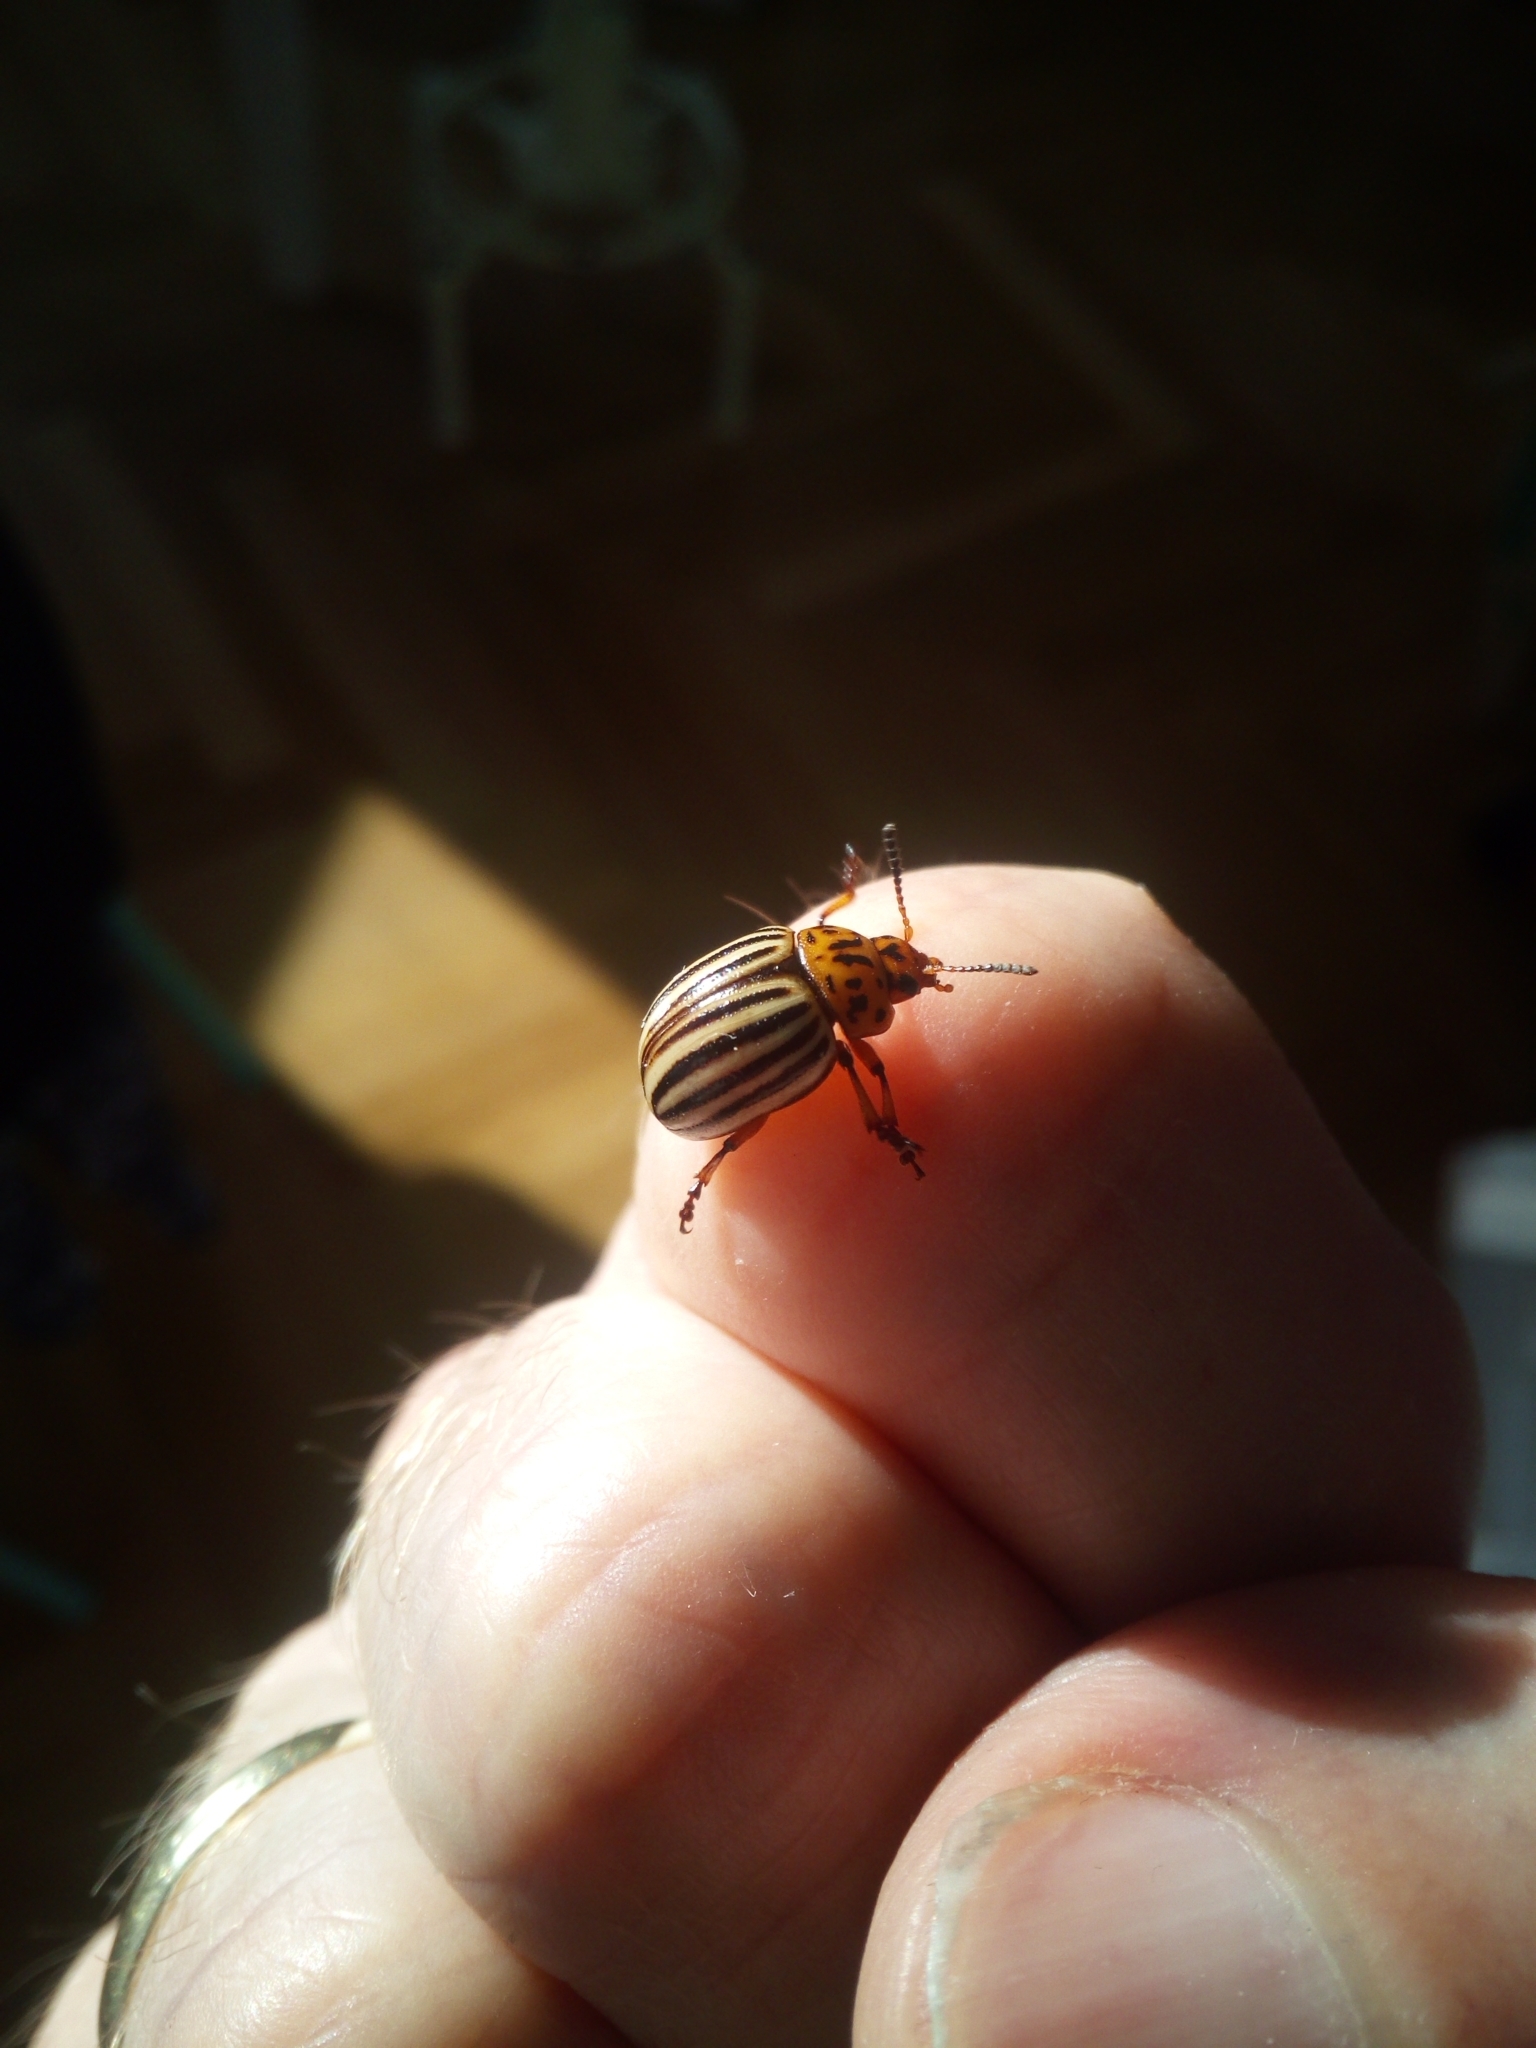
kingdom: Animalia
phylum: Arthropoda
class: Insecta
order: Coleoptera
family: Chrysomelidae
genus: Leptinotarsa
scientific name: Leptinotarsa decemlineata
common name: Colorado potato beetle
